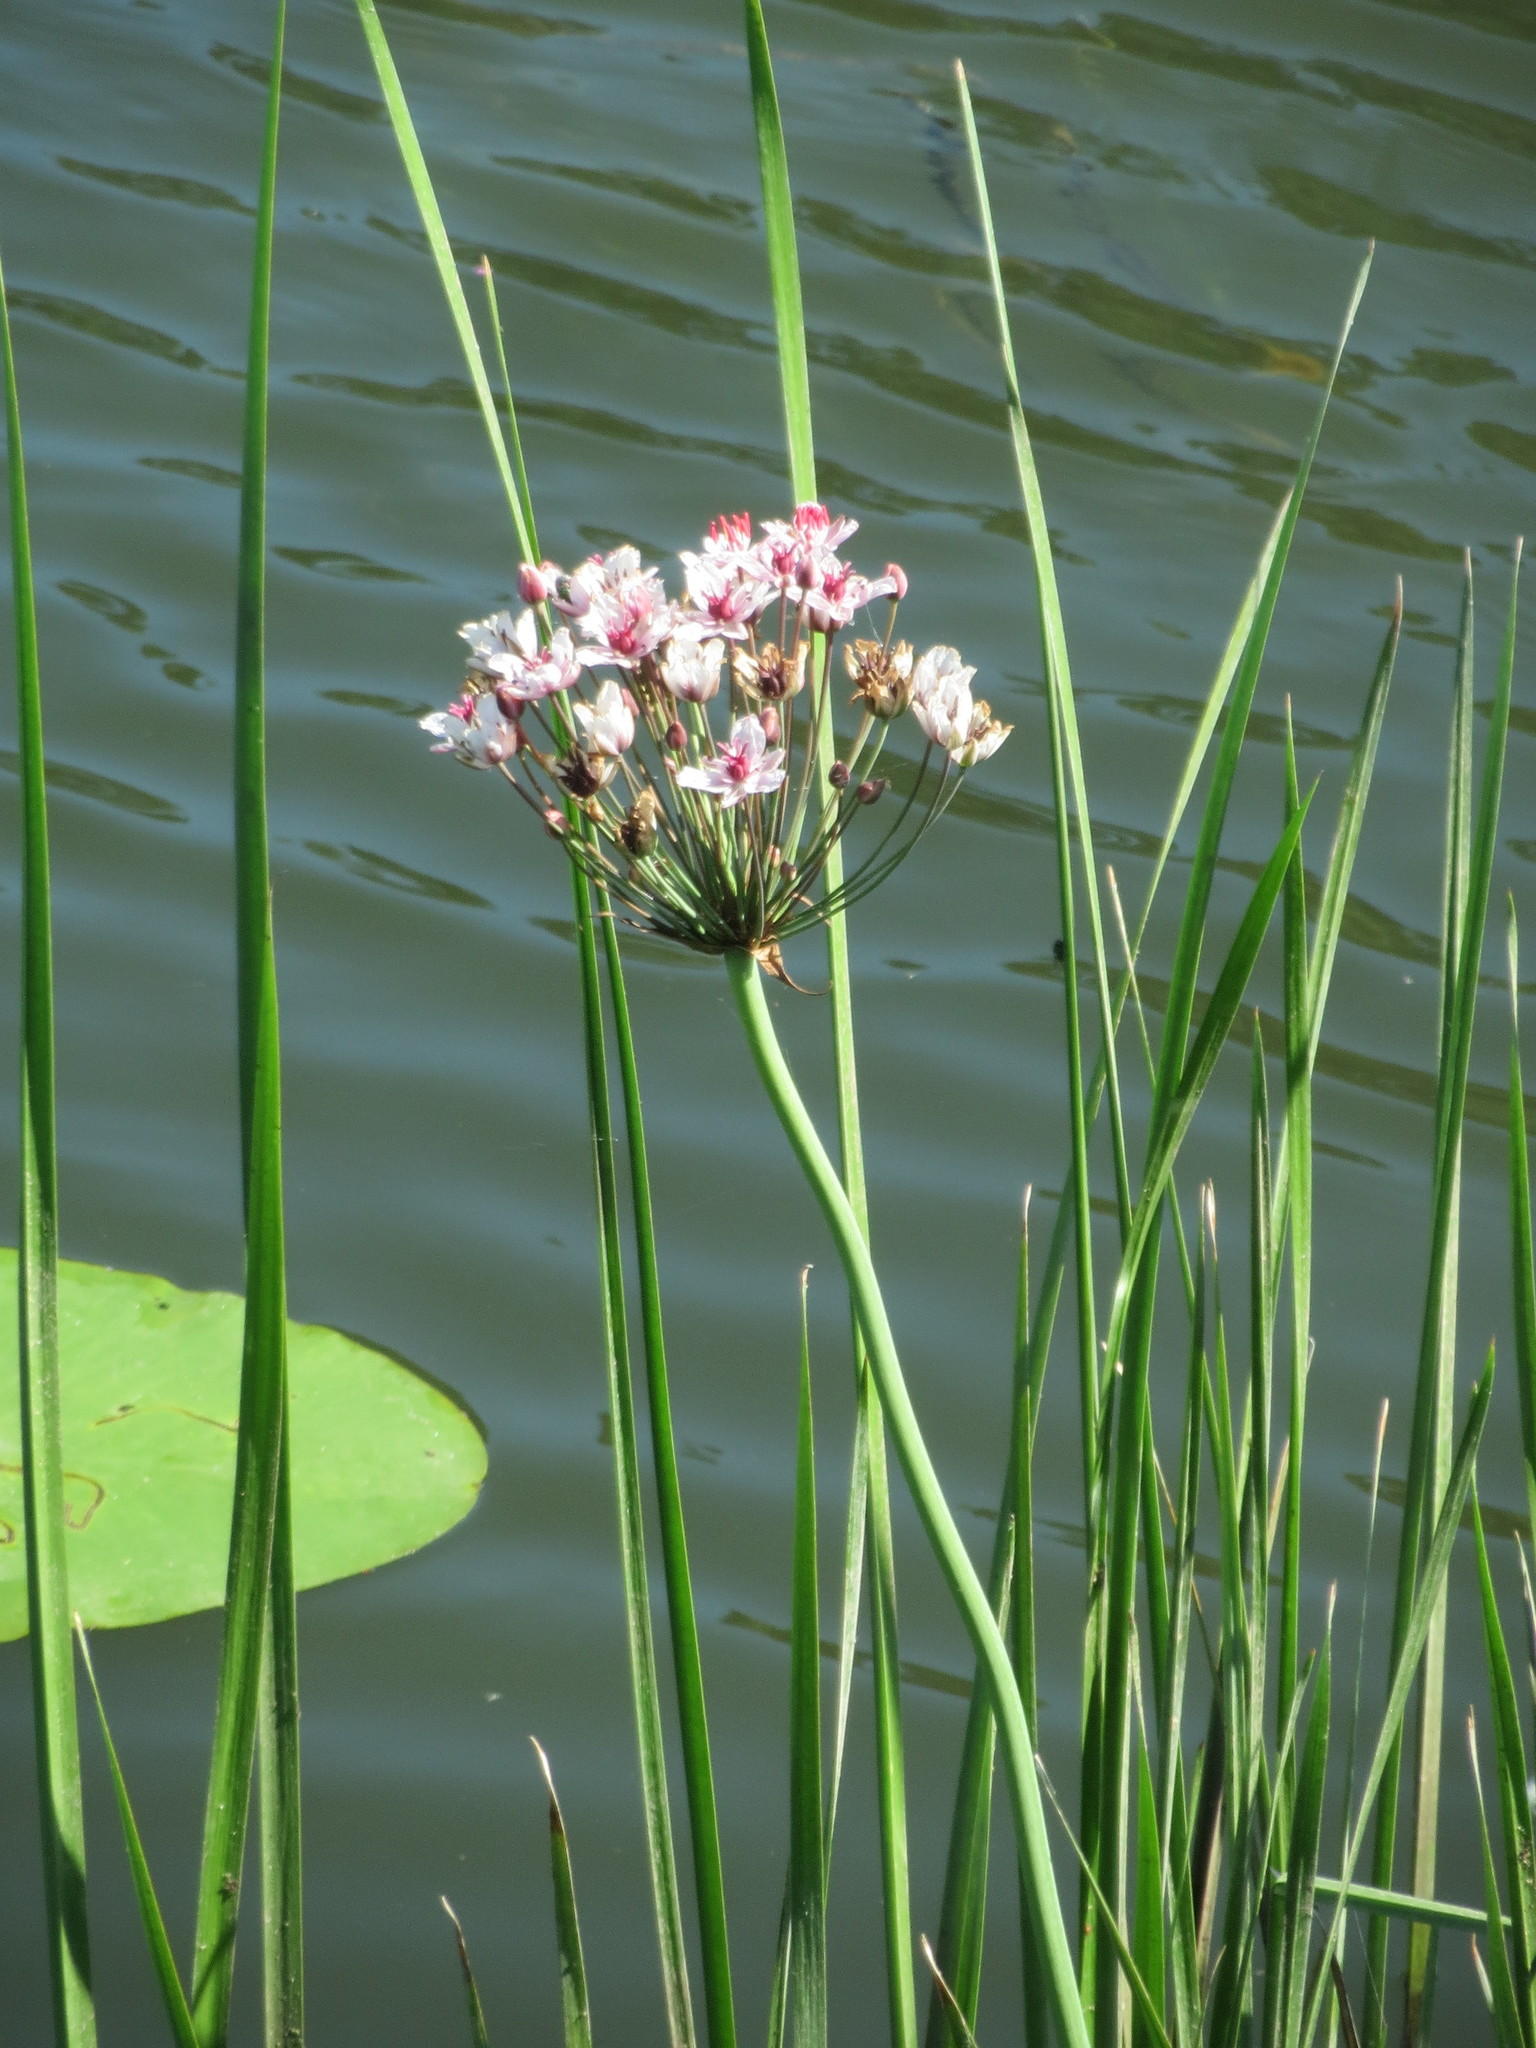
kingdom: Plantae
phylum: Tracheophyta
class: Liliopsida
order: Alismatales
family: Butomaceae
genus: Butomus
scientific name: Butomus umbellatus
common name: Flowering-rush
